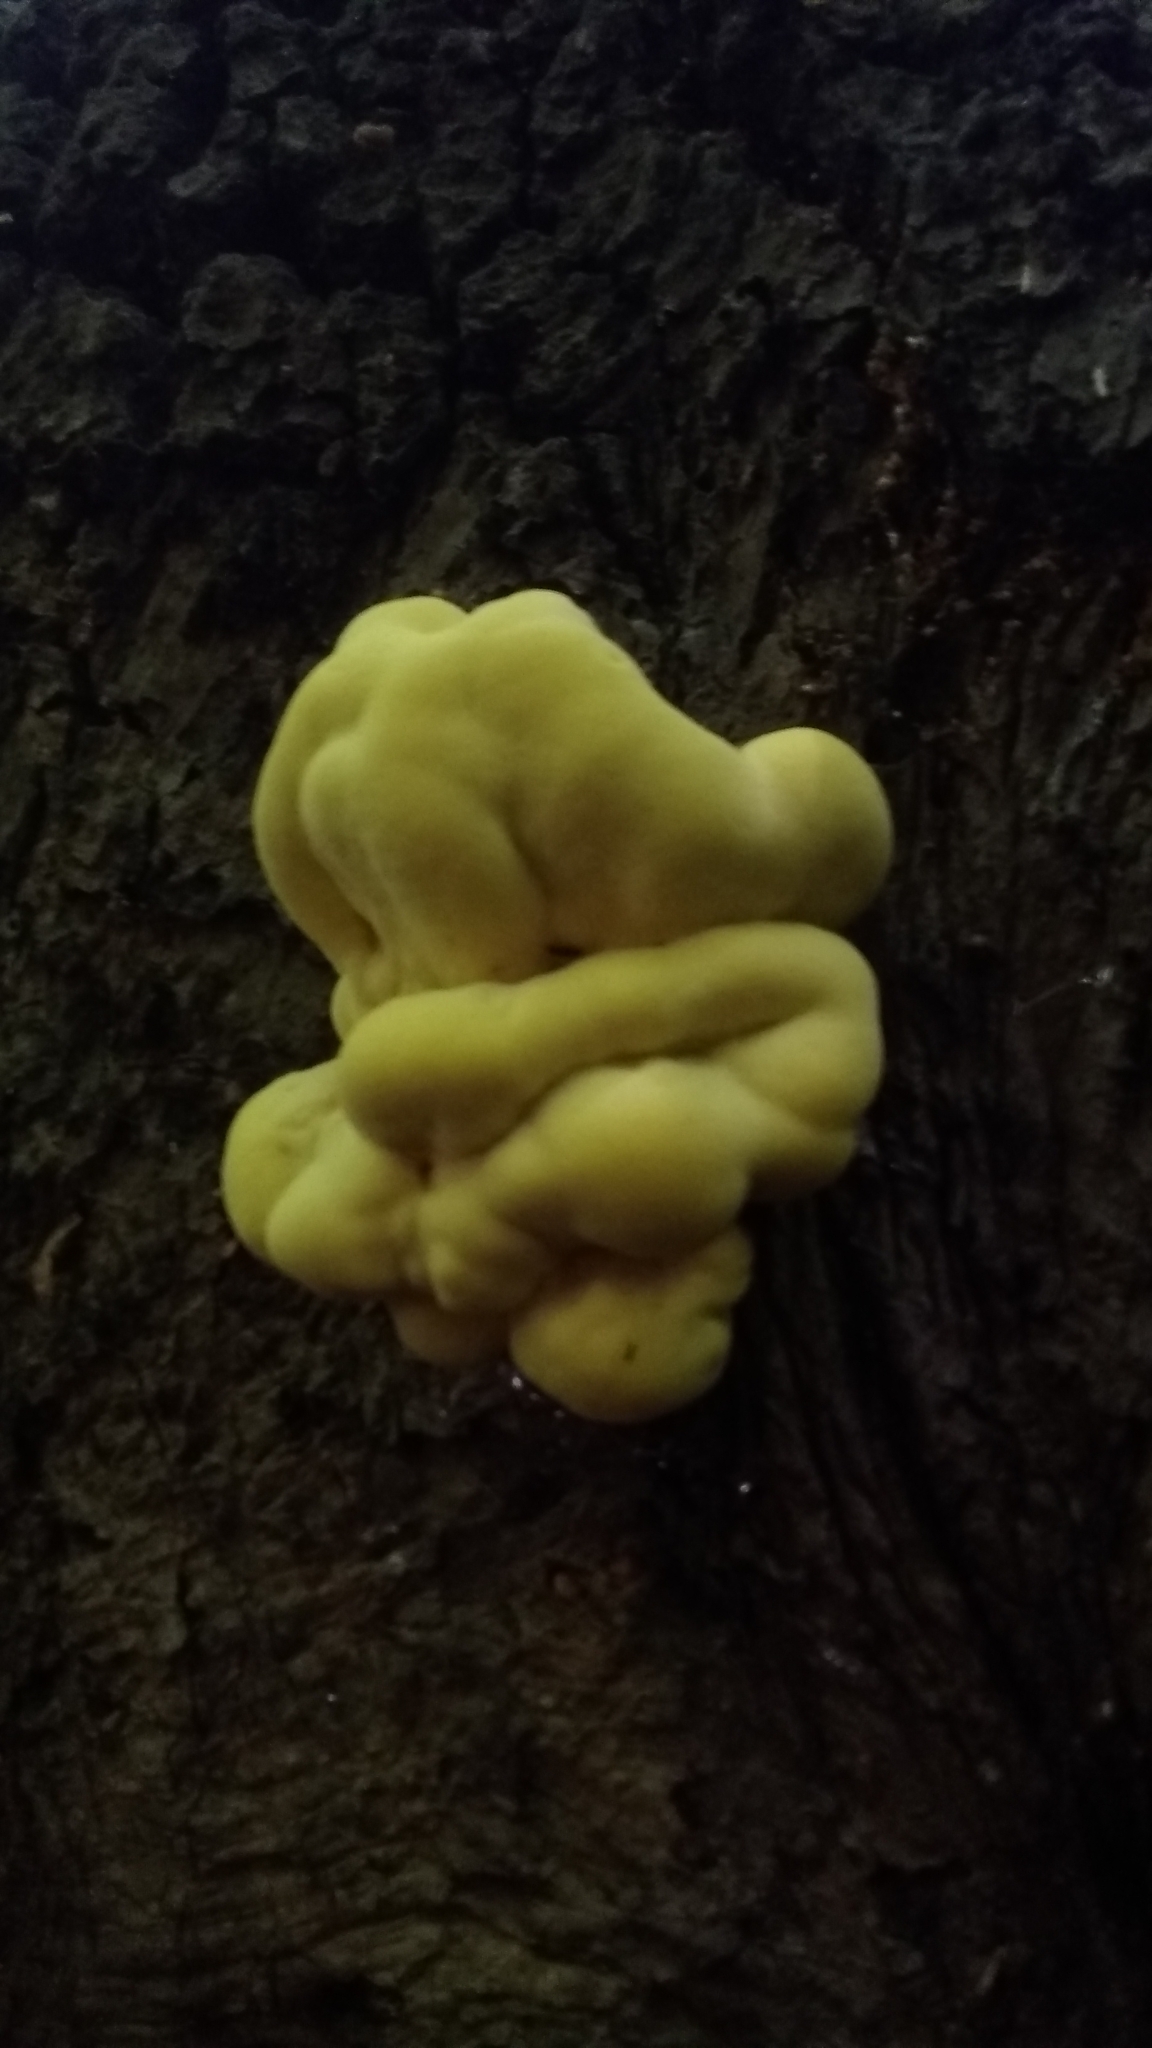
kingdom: Fungi
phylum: Basidiomycota
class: Agaricomycetes
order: Polyporales
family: Laetiporaceae
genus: Laetiporus
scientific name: Laetiporus sulphureus
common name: Chicken of the woods
